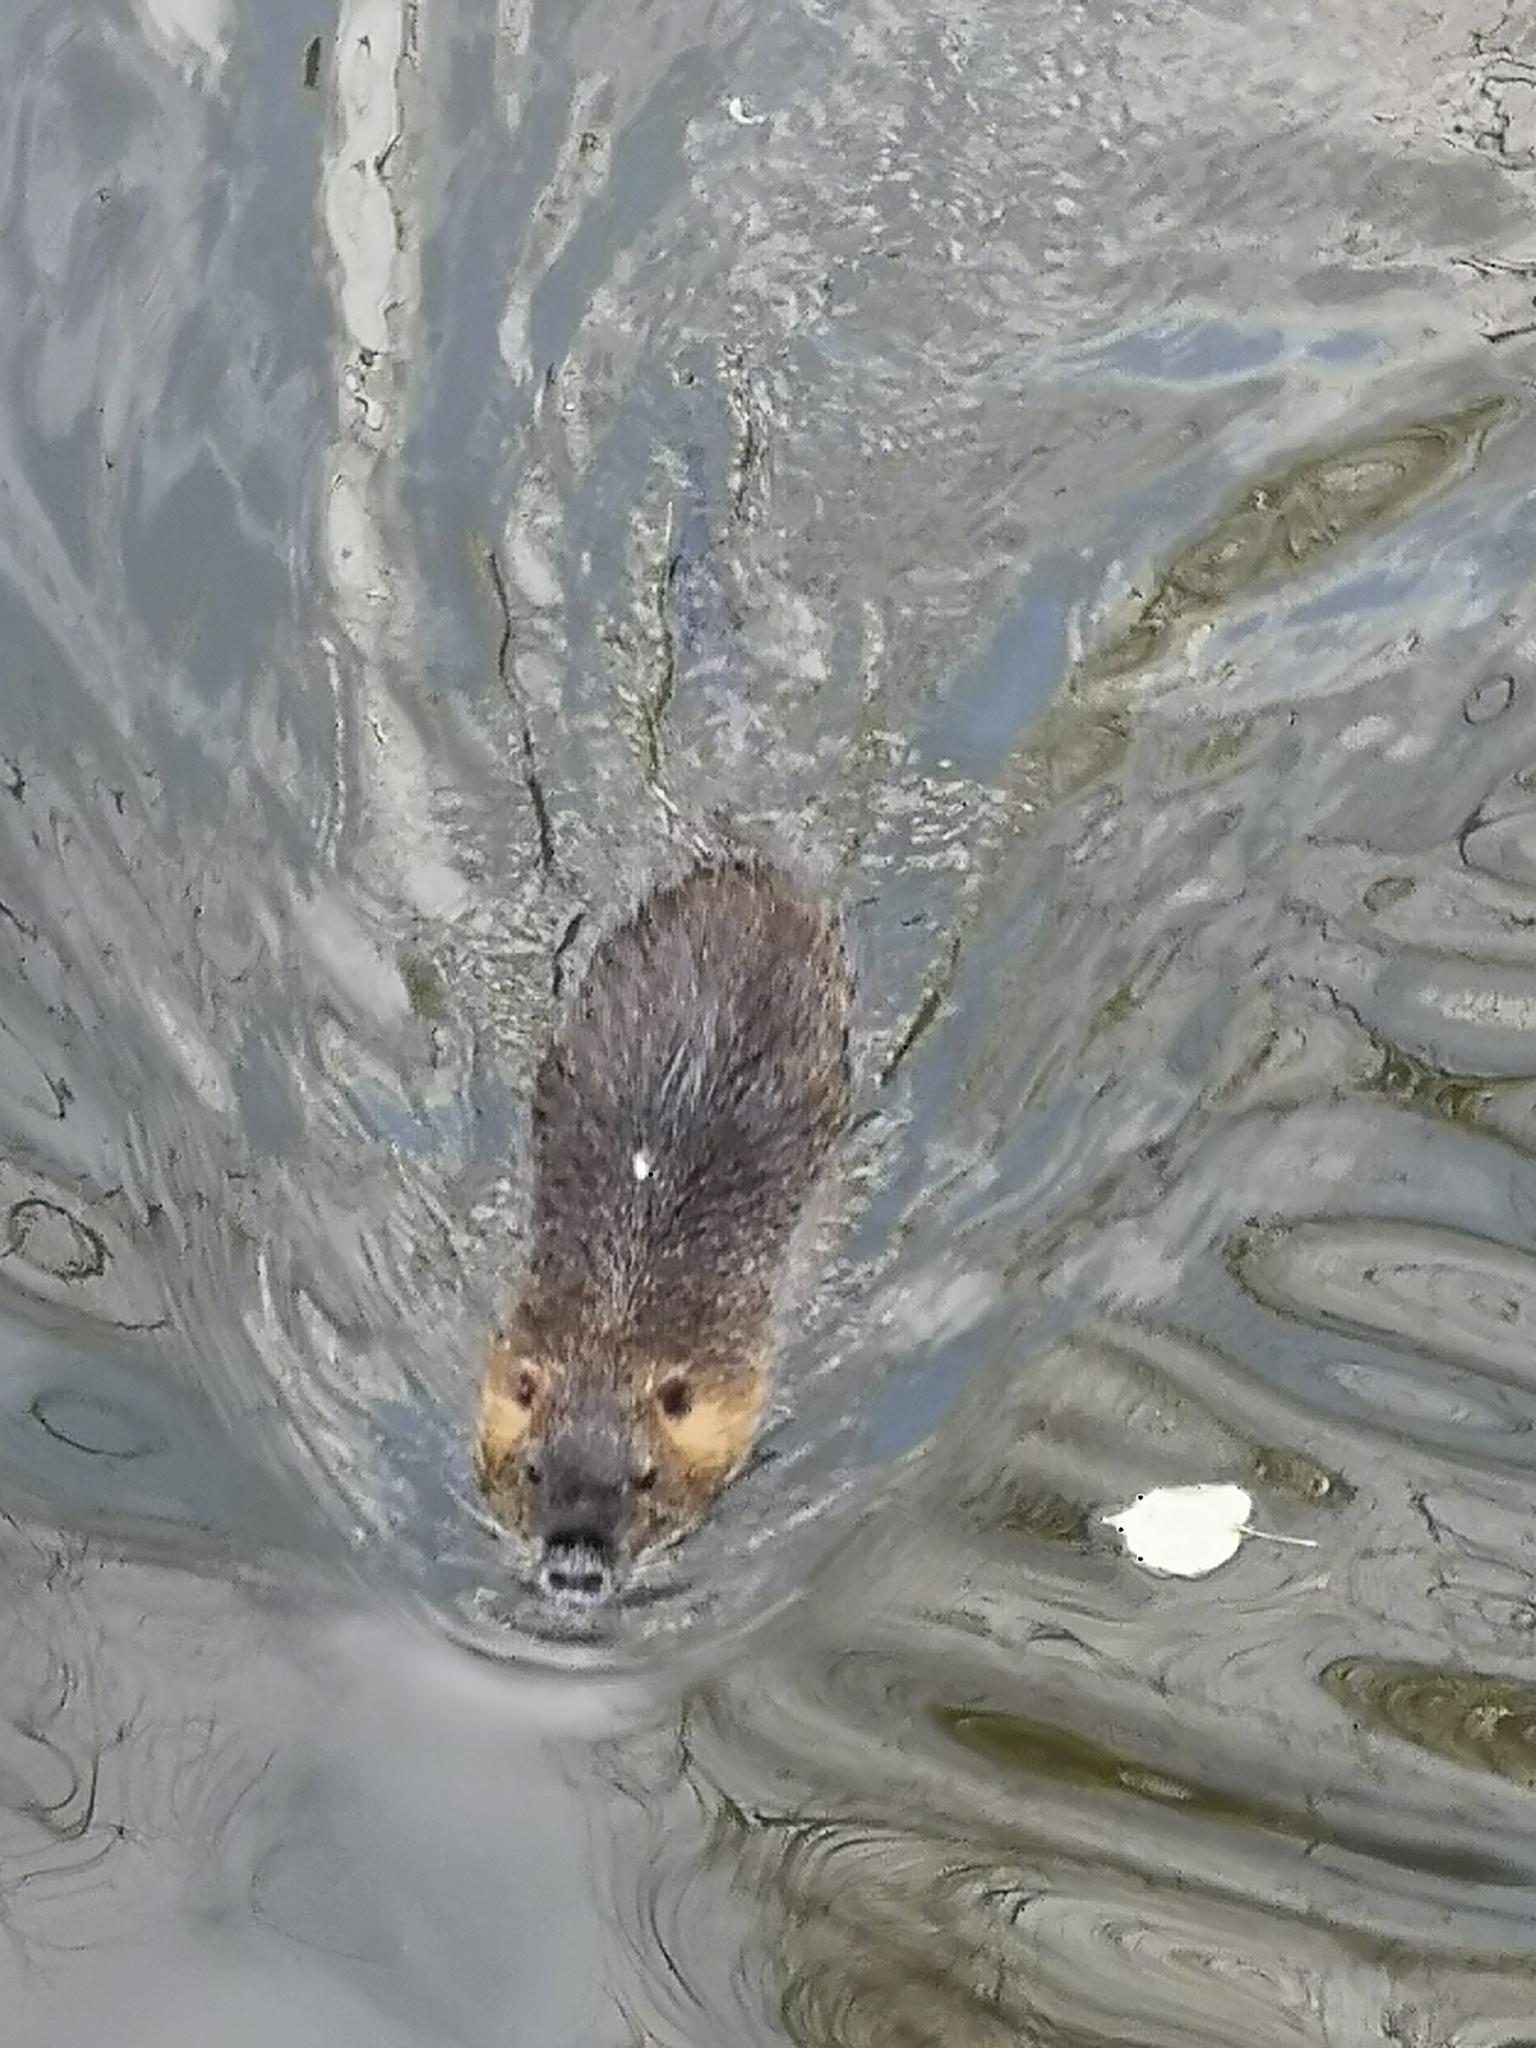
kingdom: Animalia
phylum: Chordata
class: Mammalia
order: Rodentia
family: Myocastoridae
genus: Myocastor
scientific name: Myocastor coypus
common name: Coypu
